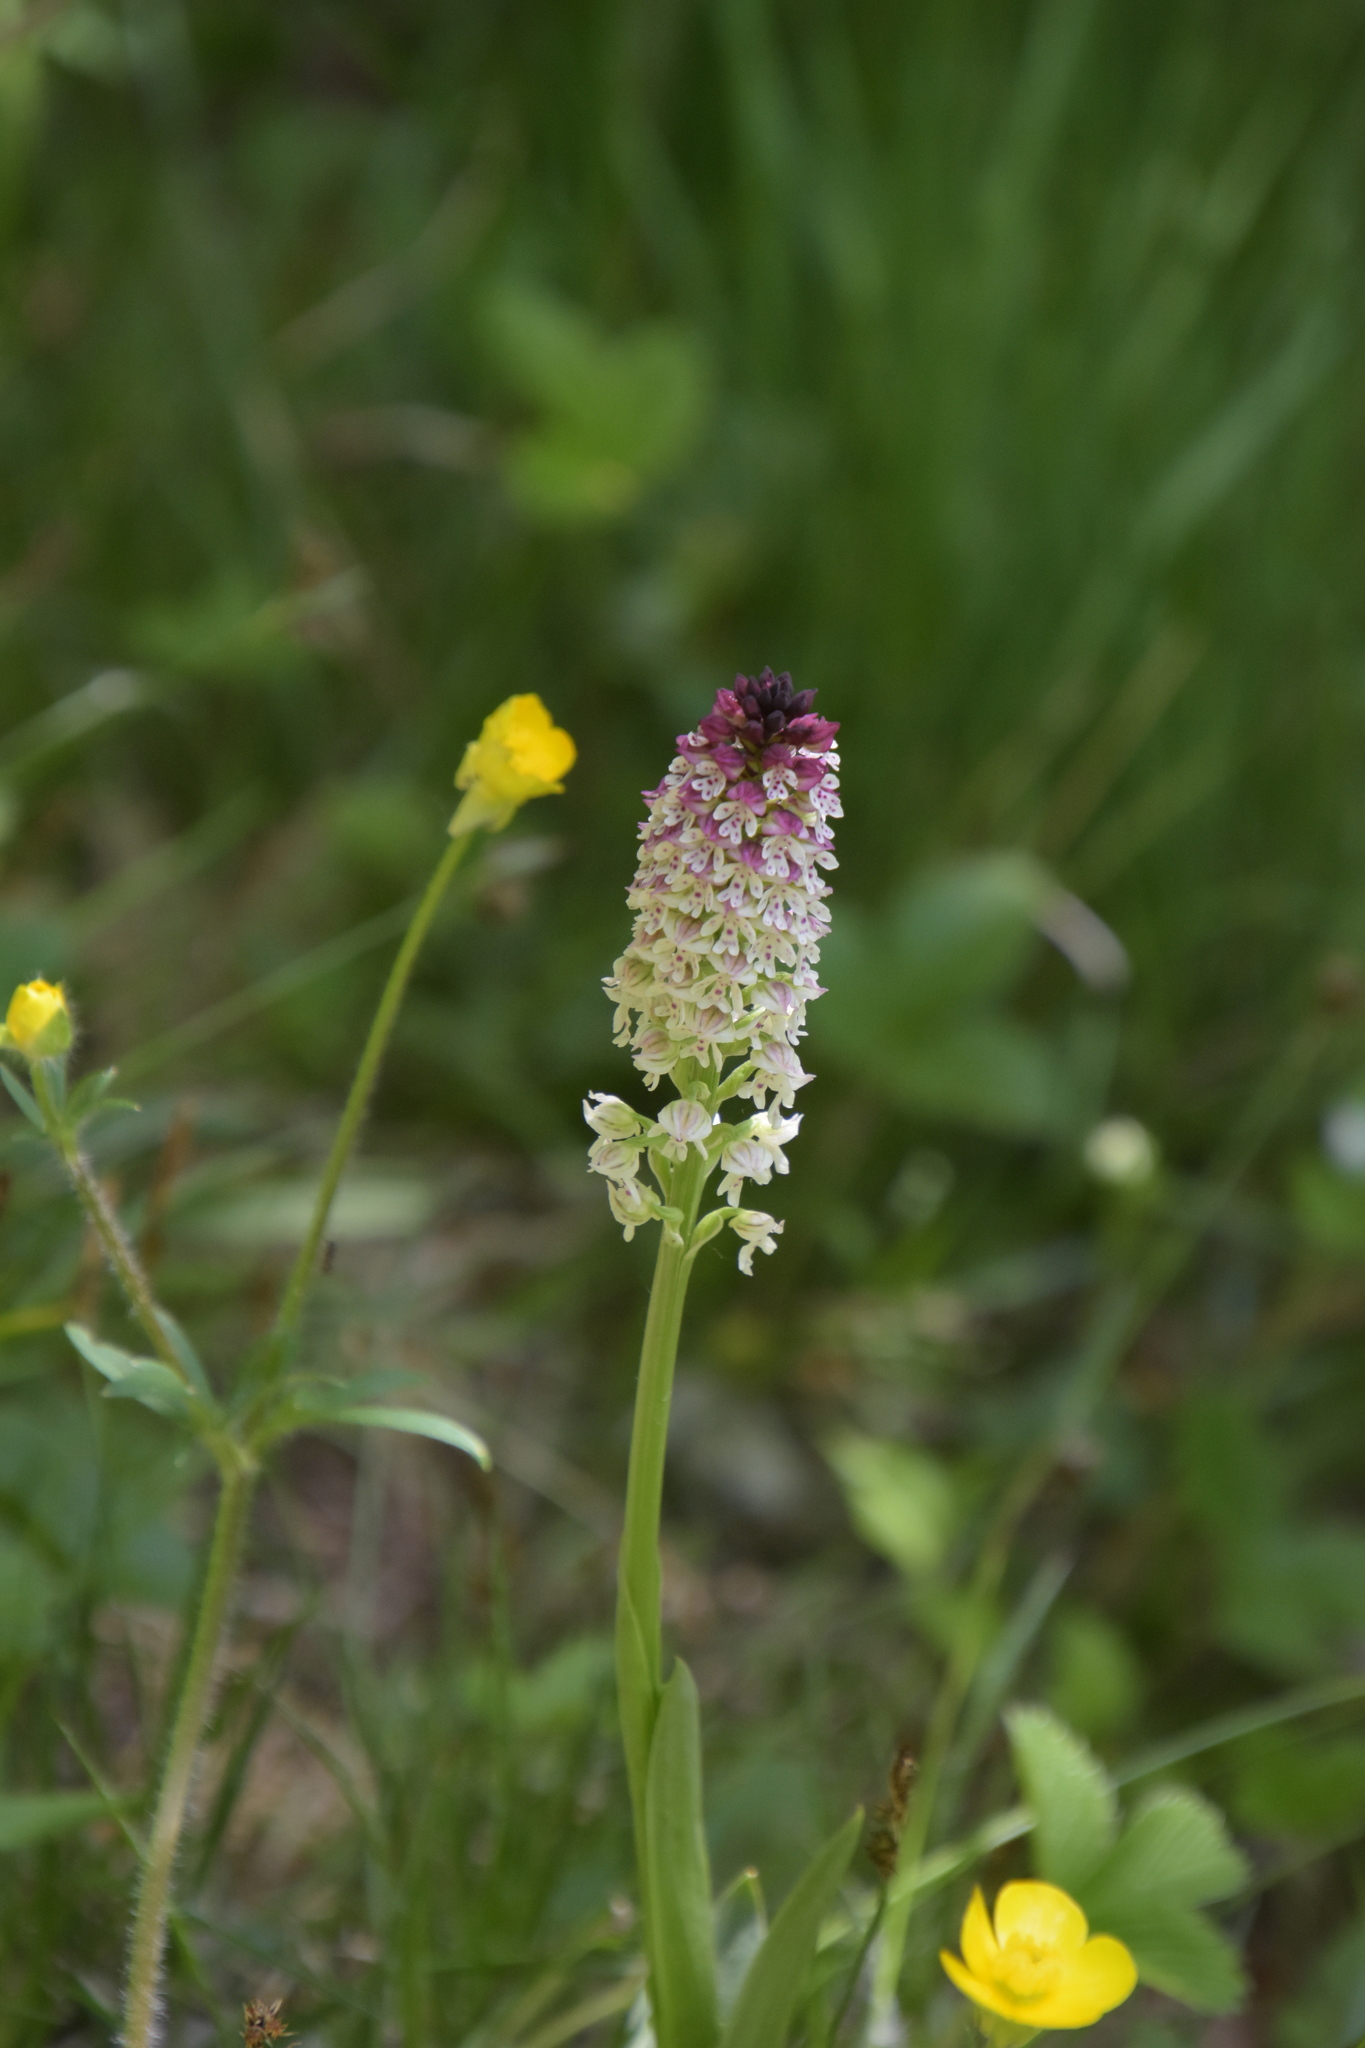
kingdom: Plantae
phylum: Tracheophyta
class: Liliopsida
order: Asparagales
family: Orchidaceae
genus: Neotinea
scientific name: Neotinea ustulata
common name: Burnt orchid
